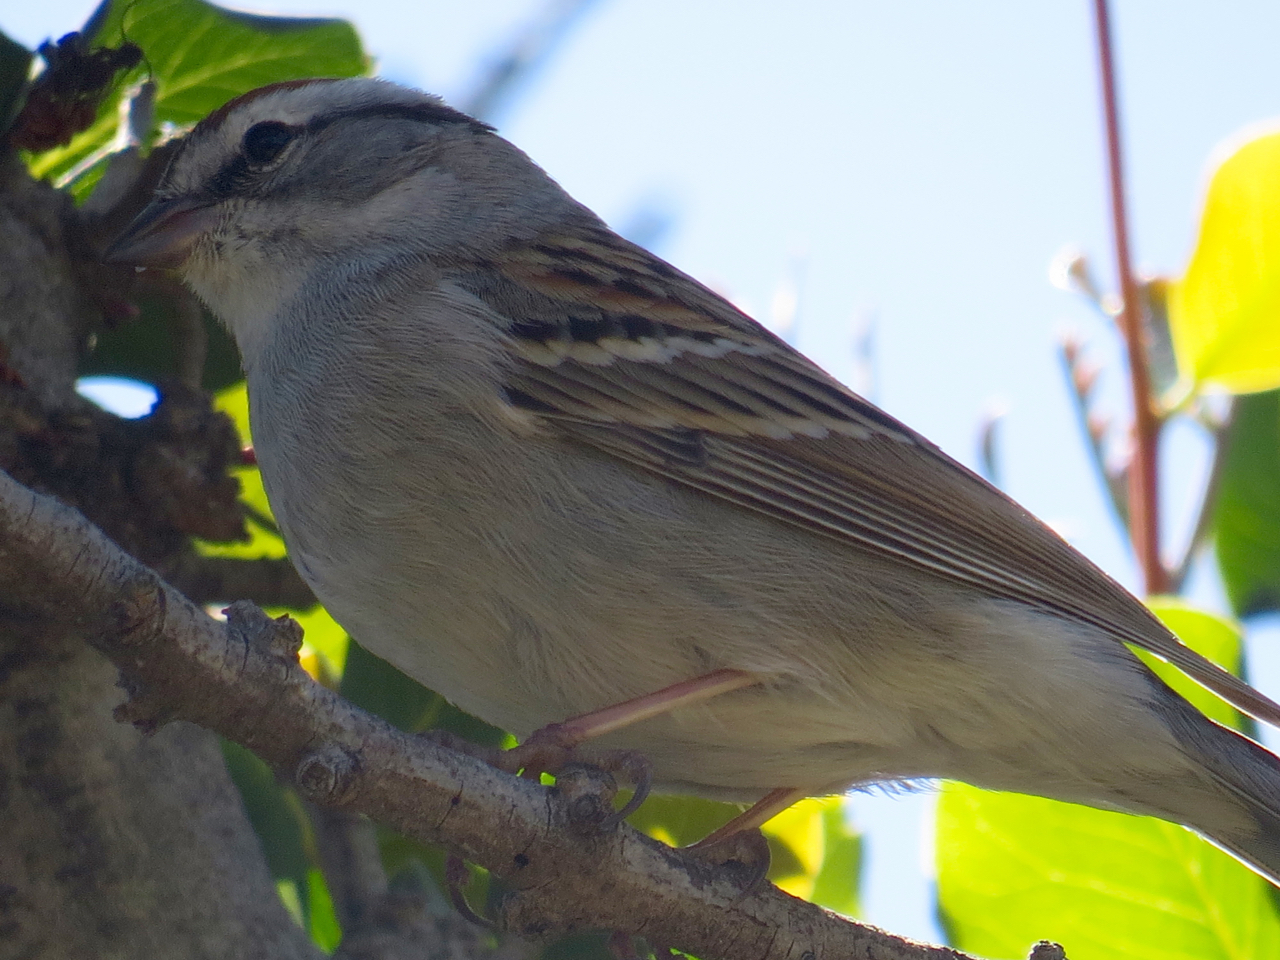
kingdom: Animalia
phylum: Chordata
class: Aves
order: Passeriformes
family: Passerellidae
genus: Spizella
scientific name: Spizella passerina
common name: Chipping sparrow
